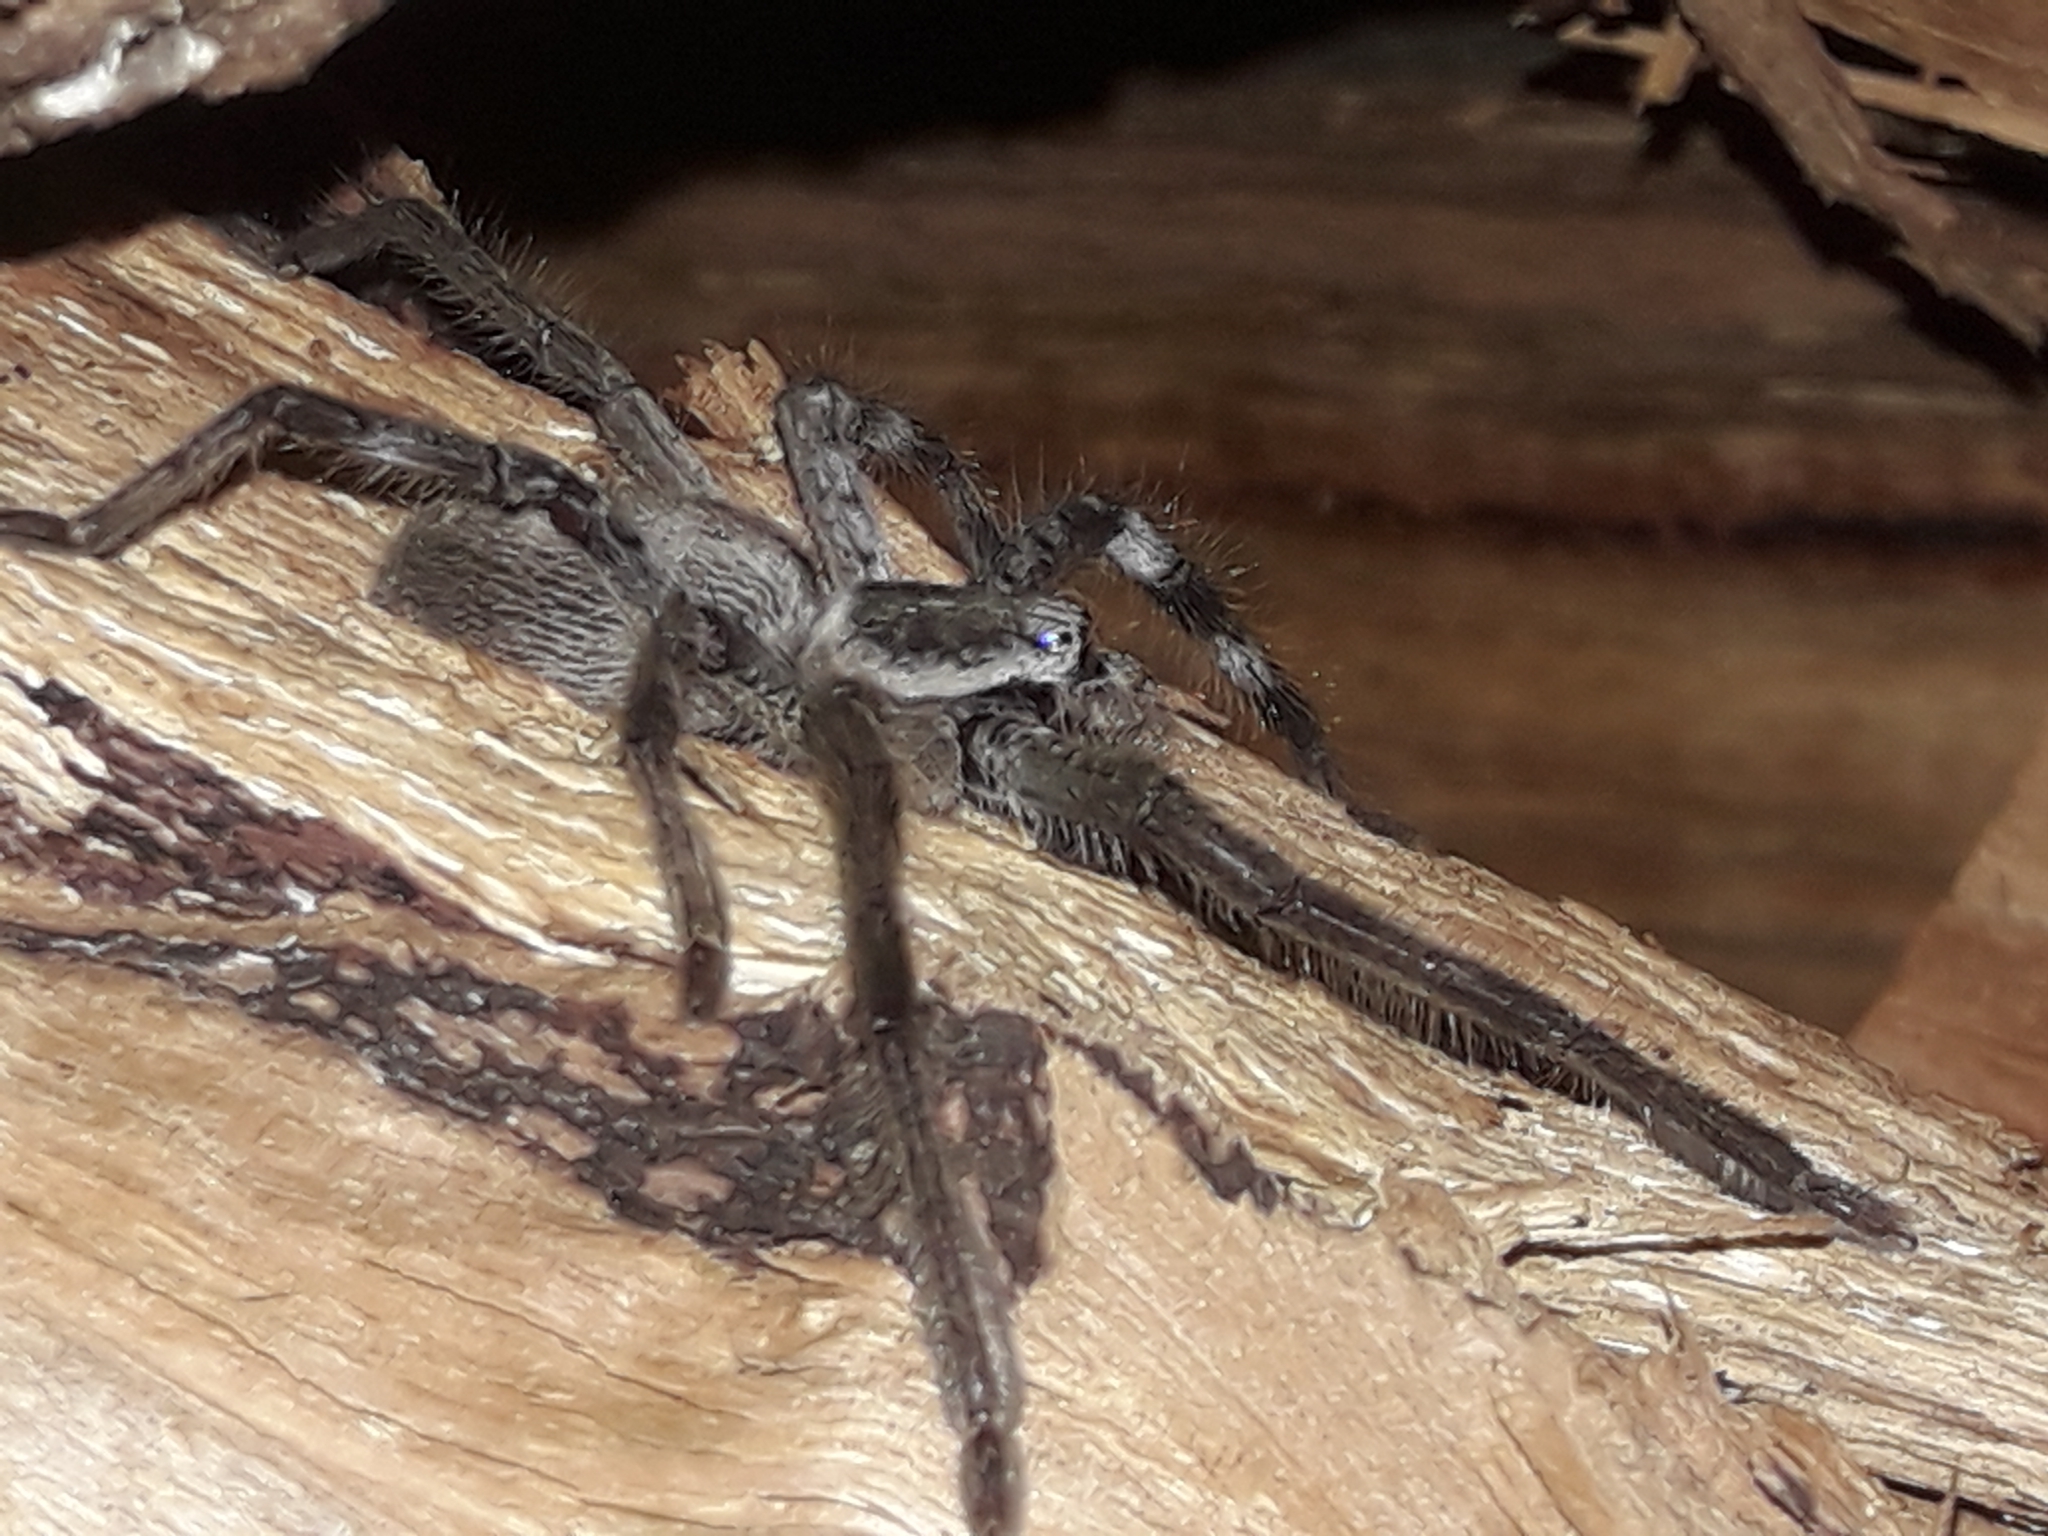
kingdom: Animalia
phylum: Arthropoda
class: Arachnida
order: Araneae
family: Sparassidae
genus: Isopeda
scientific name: Isopeda montana
